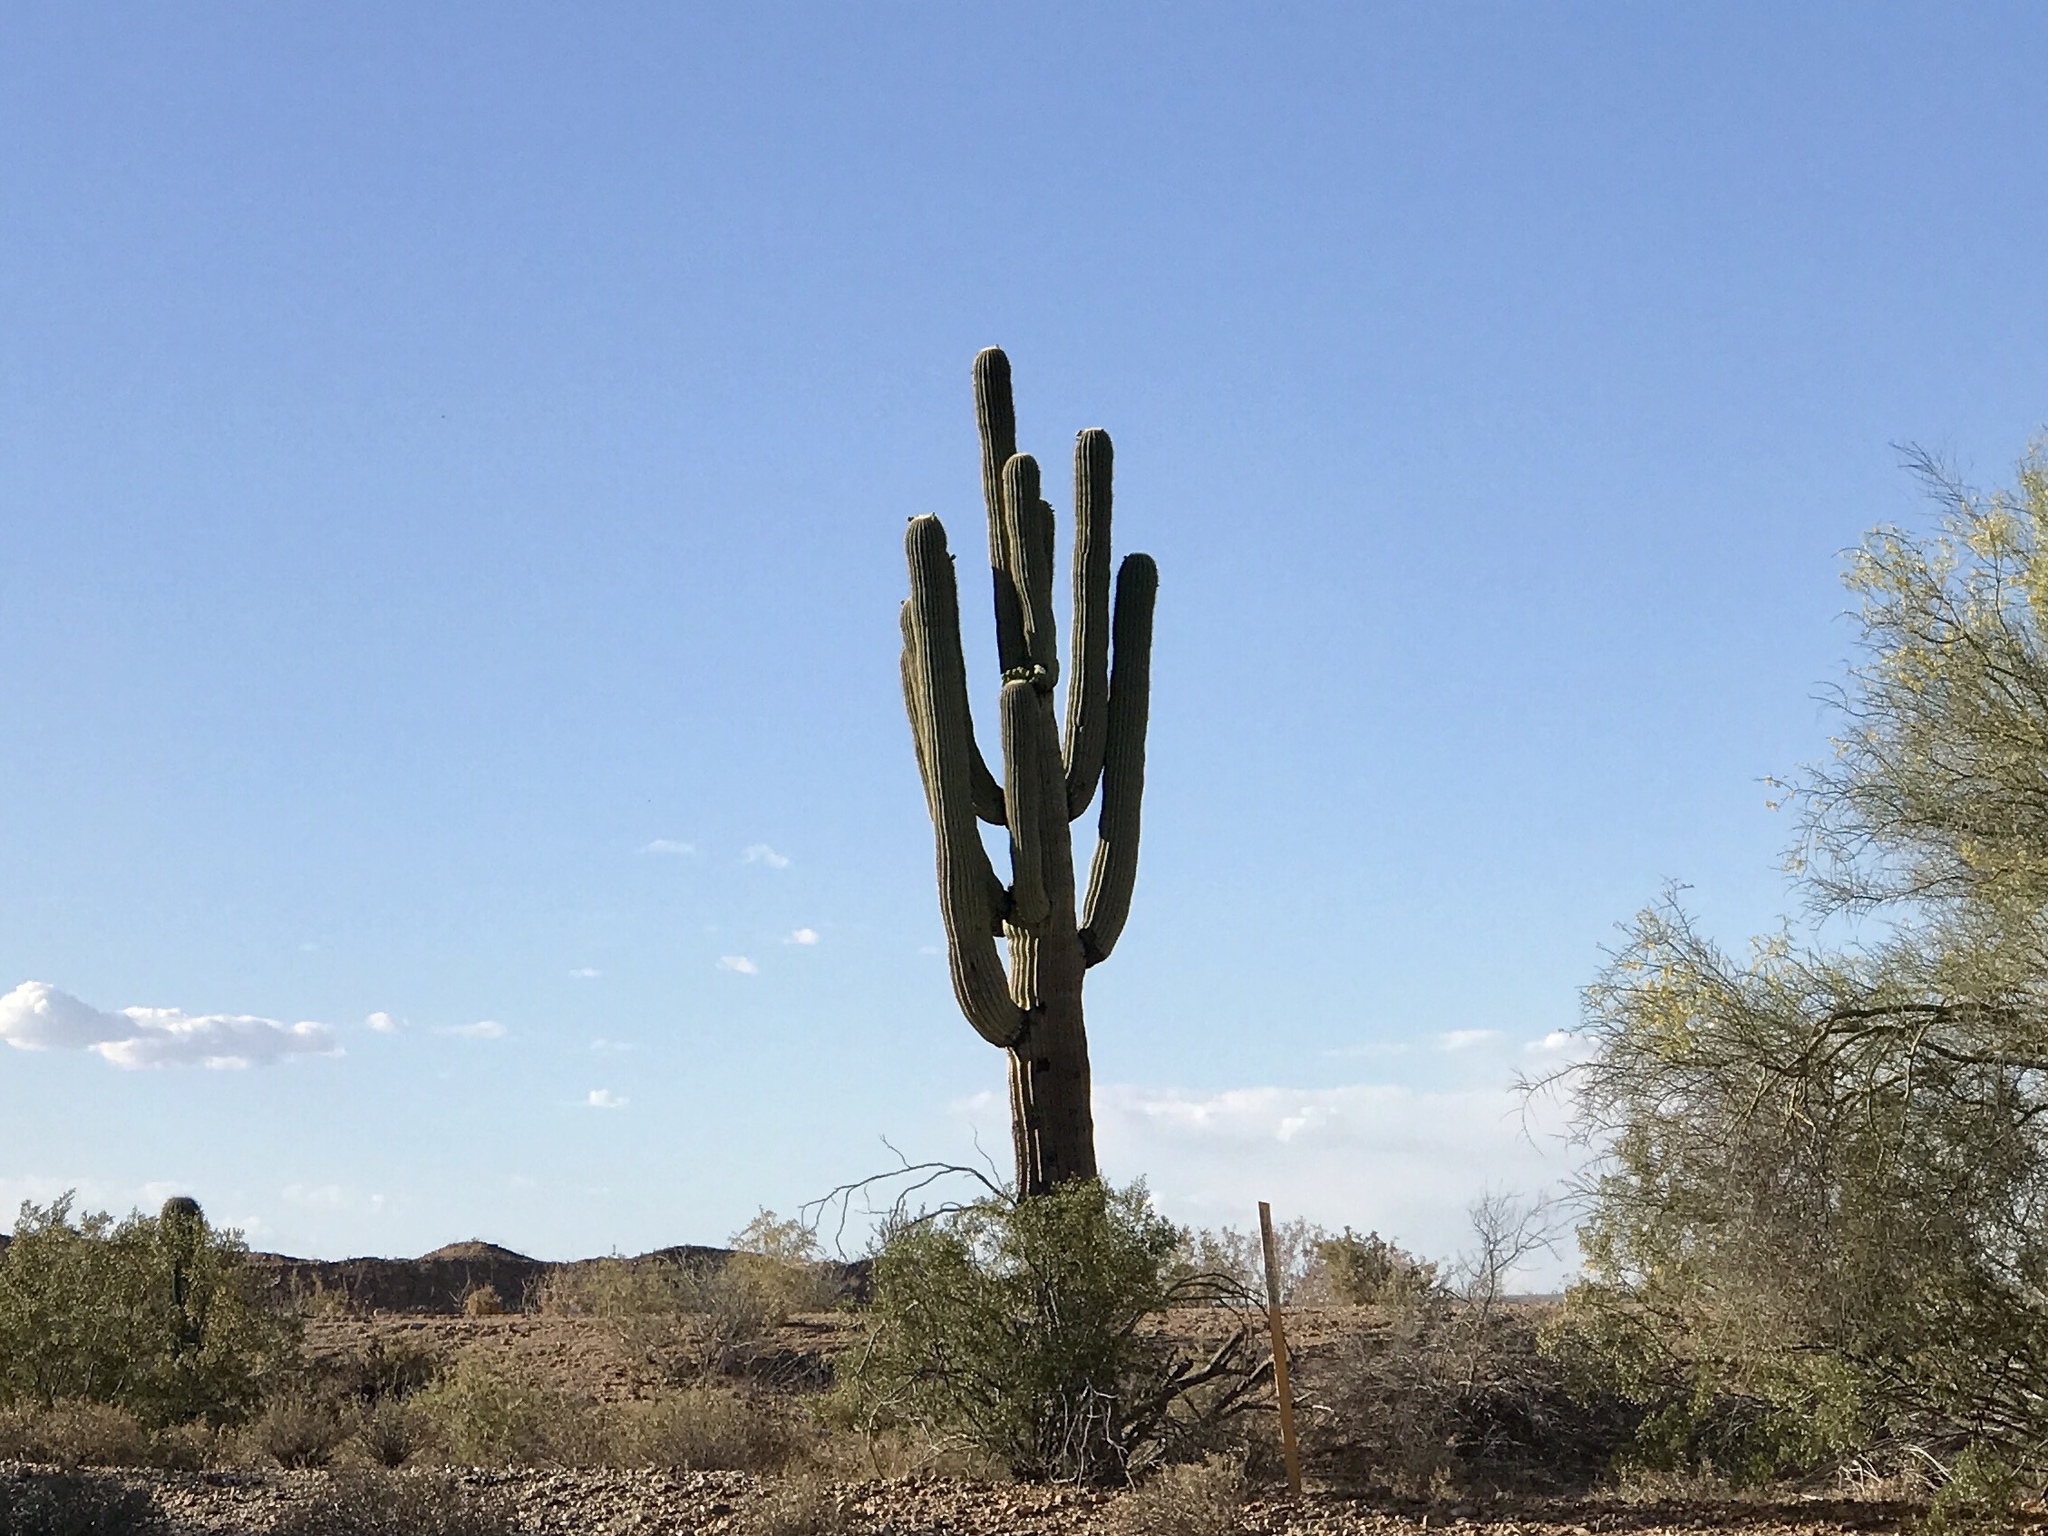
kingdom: Plantae
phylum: Tracheophyta
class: Magnoliopsida
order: Caryophyllales
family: Cactaceae
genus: Carnegiea
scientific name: Carnegiea gigantea
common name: Saguaro
